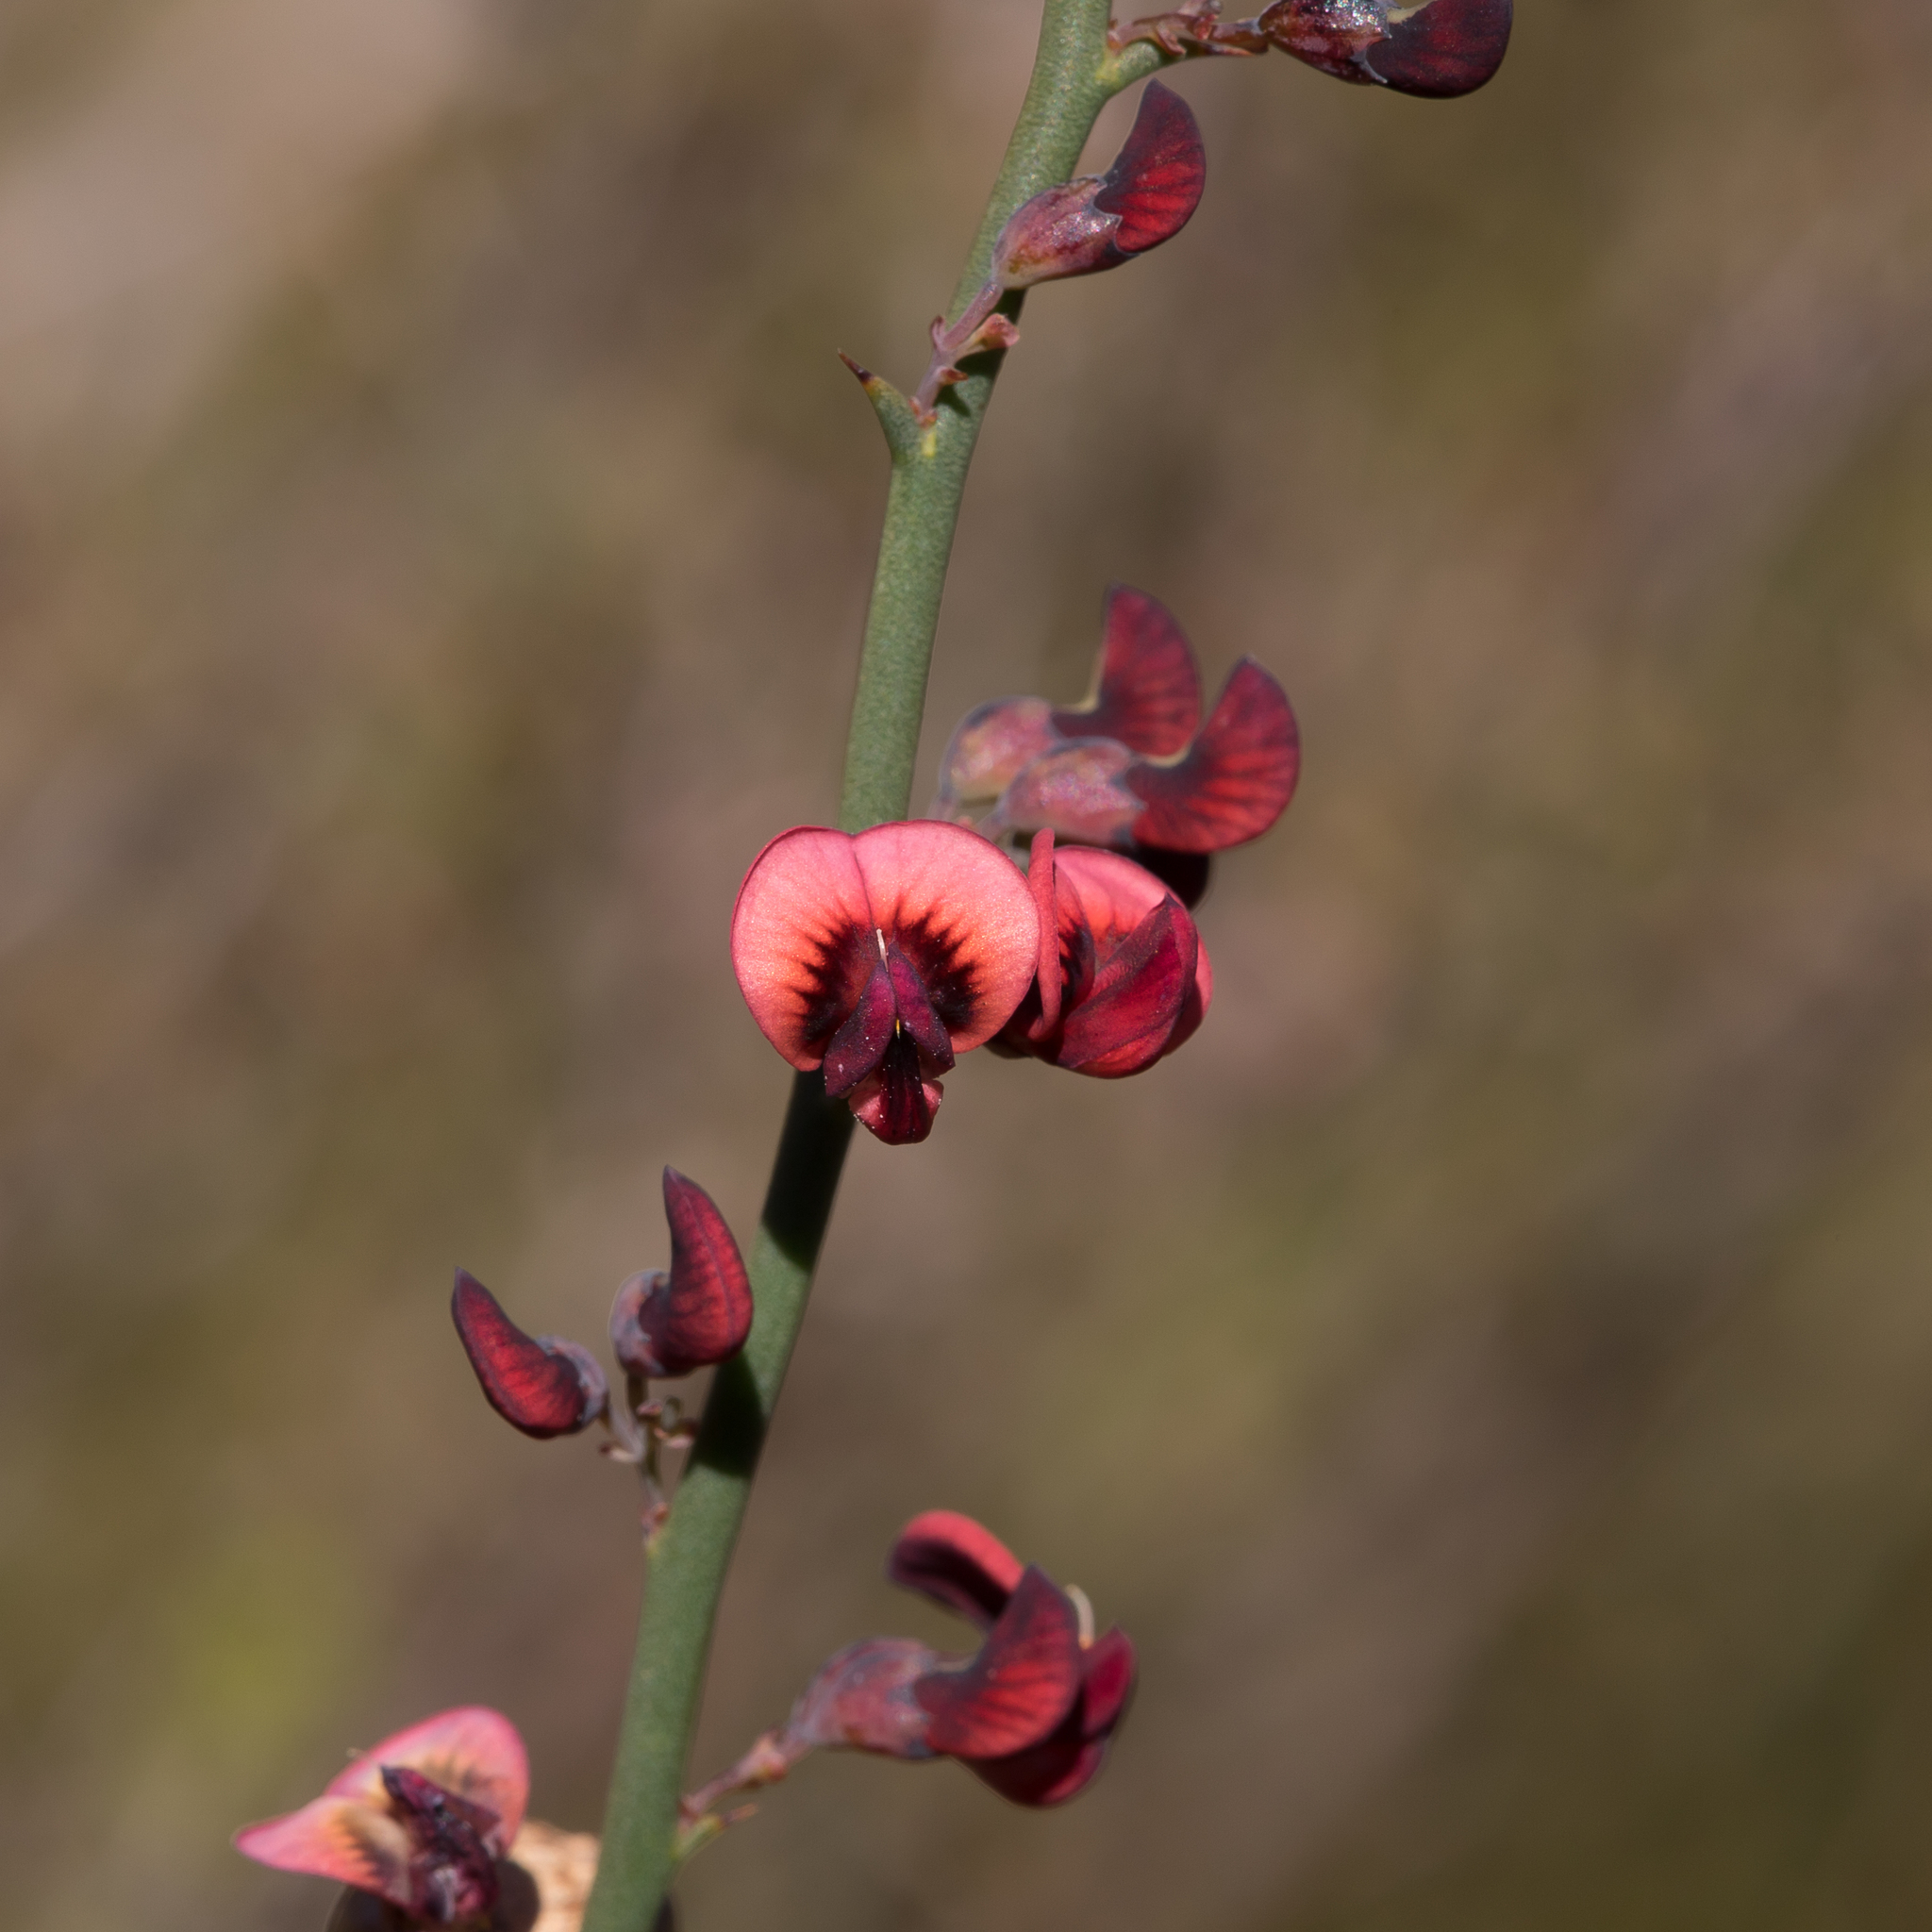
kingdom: Plantae
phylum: Tracheophyta
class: Magnoliopsida
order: Fabales
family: Fabaceae
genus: Daviesia
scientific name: Daviesia brevifolia
